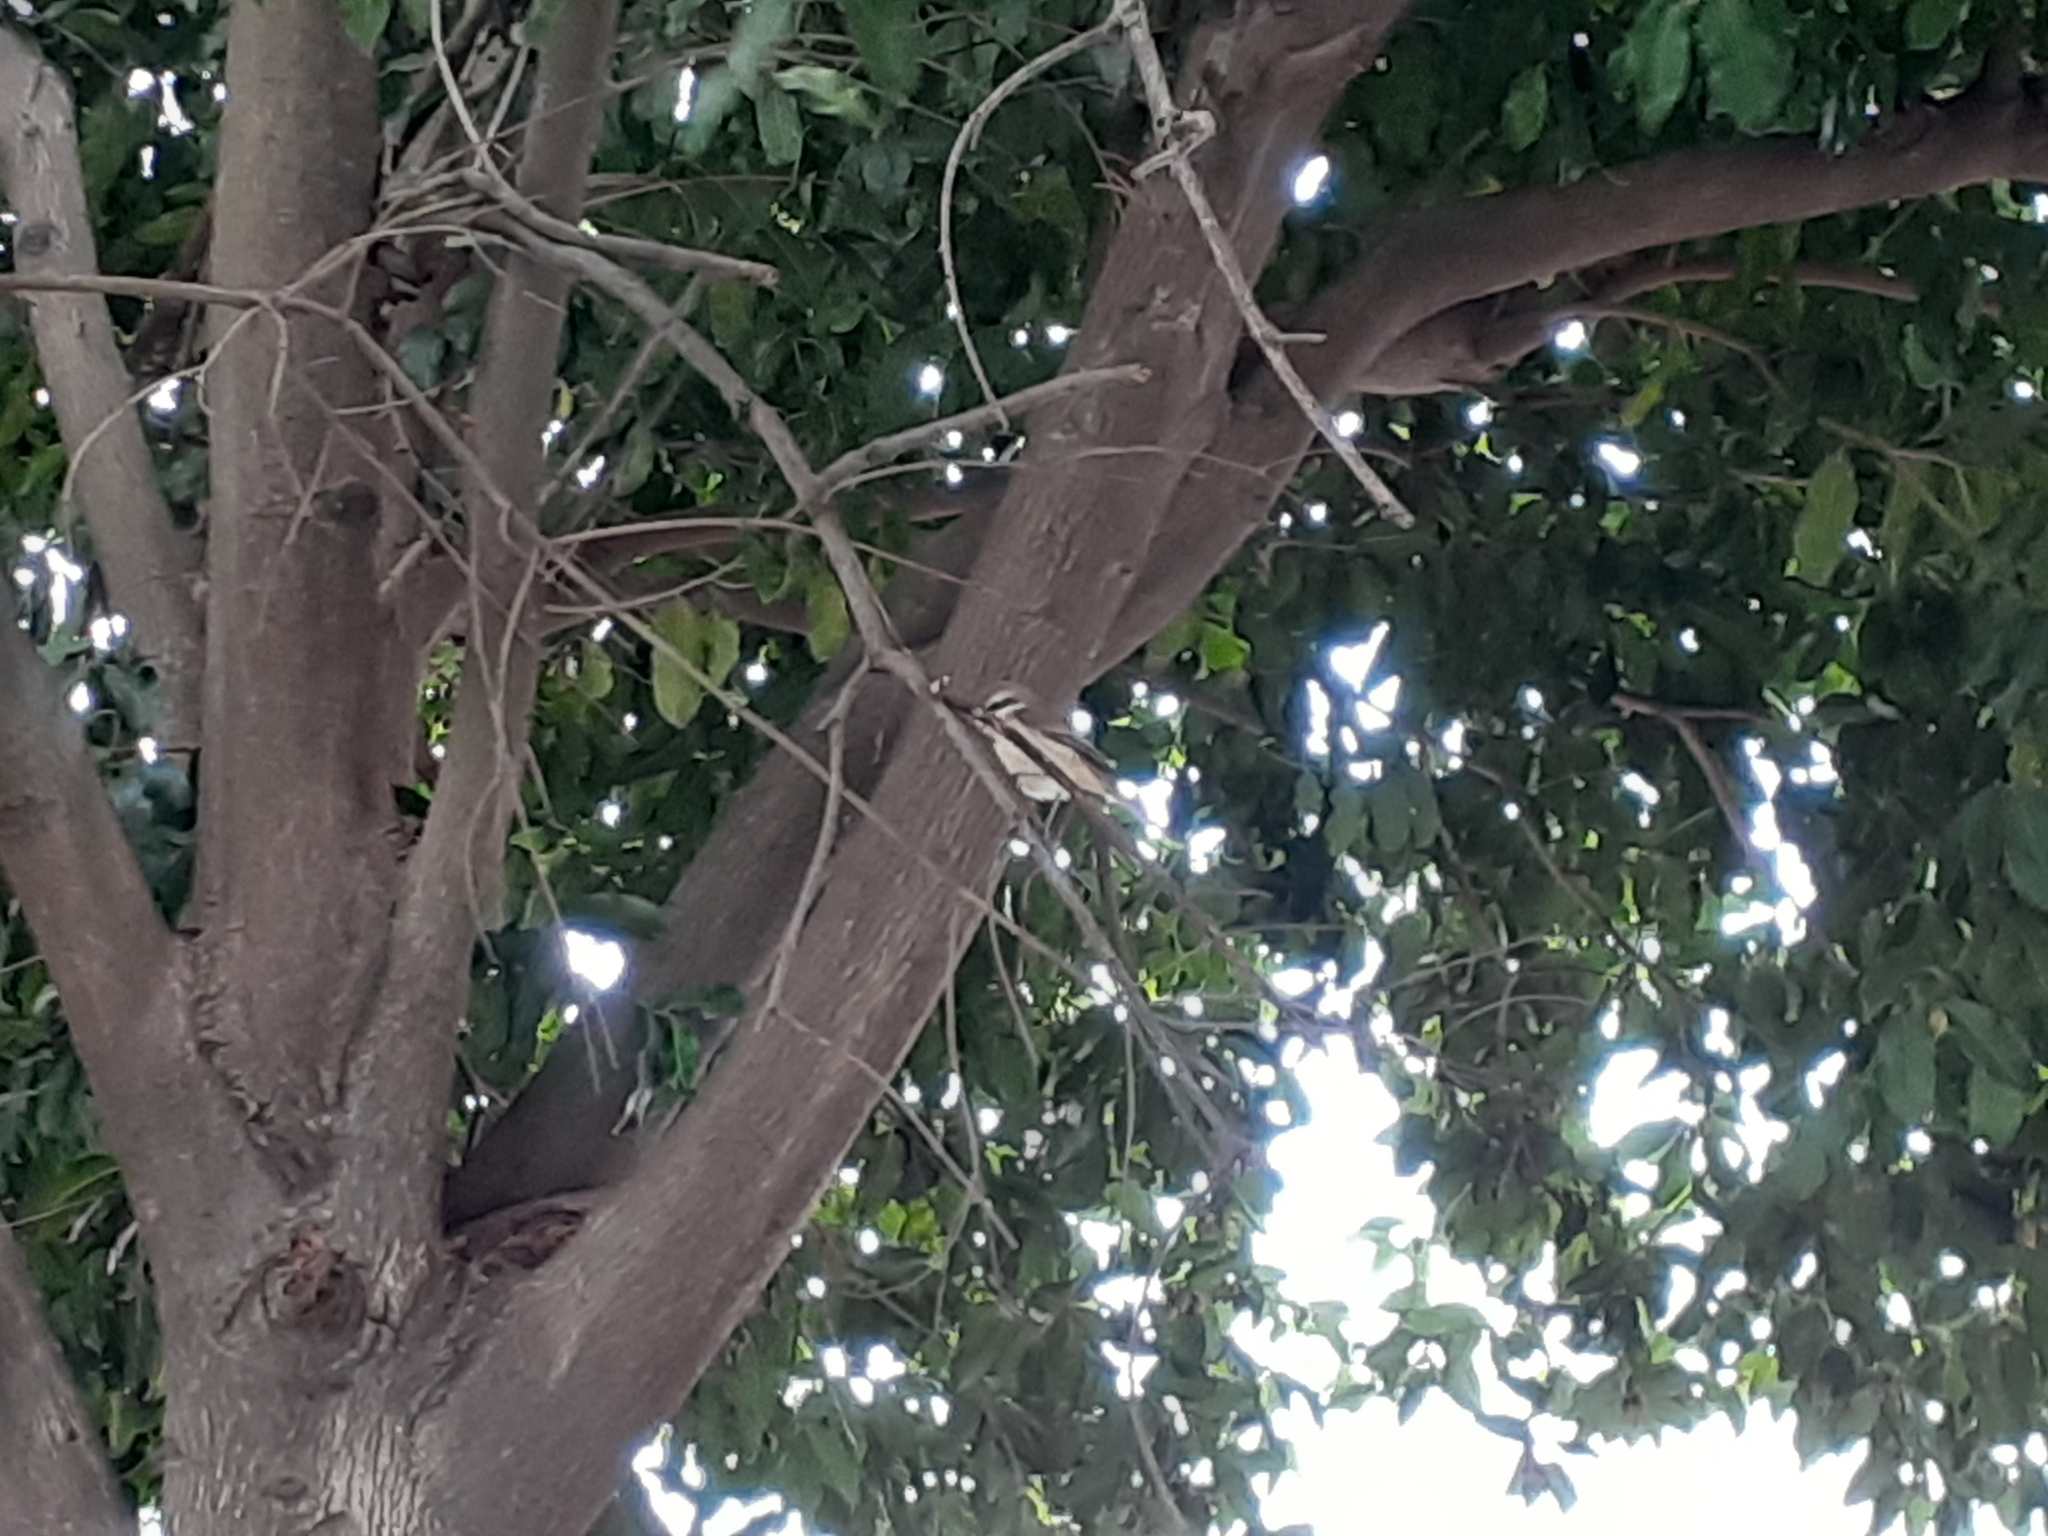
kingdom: Animalia
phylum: Chordata
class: Aves
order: Passeriformes
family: Laniidae
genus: Lanius
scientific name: Lanius cristatus
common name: Brown shrike
